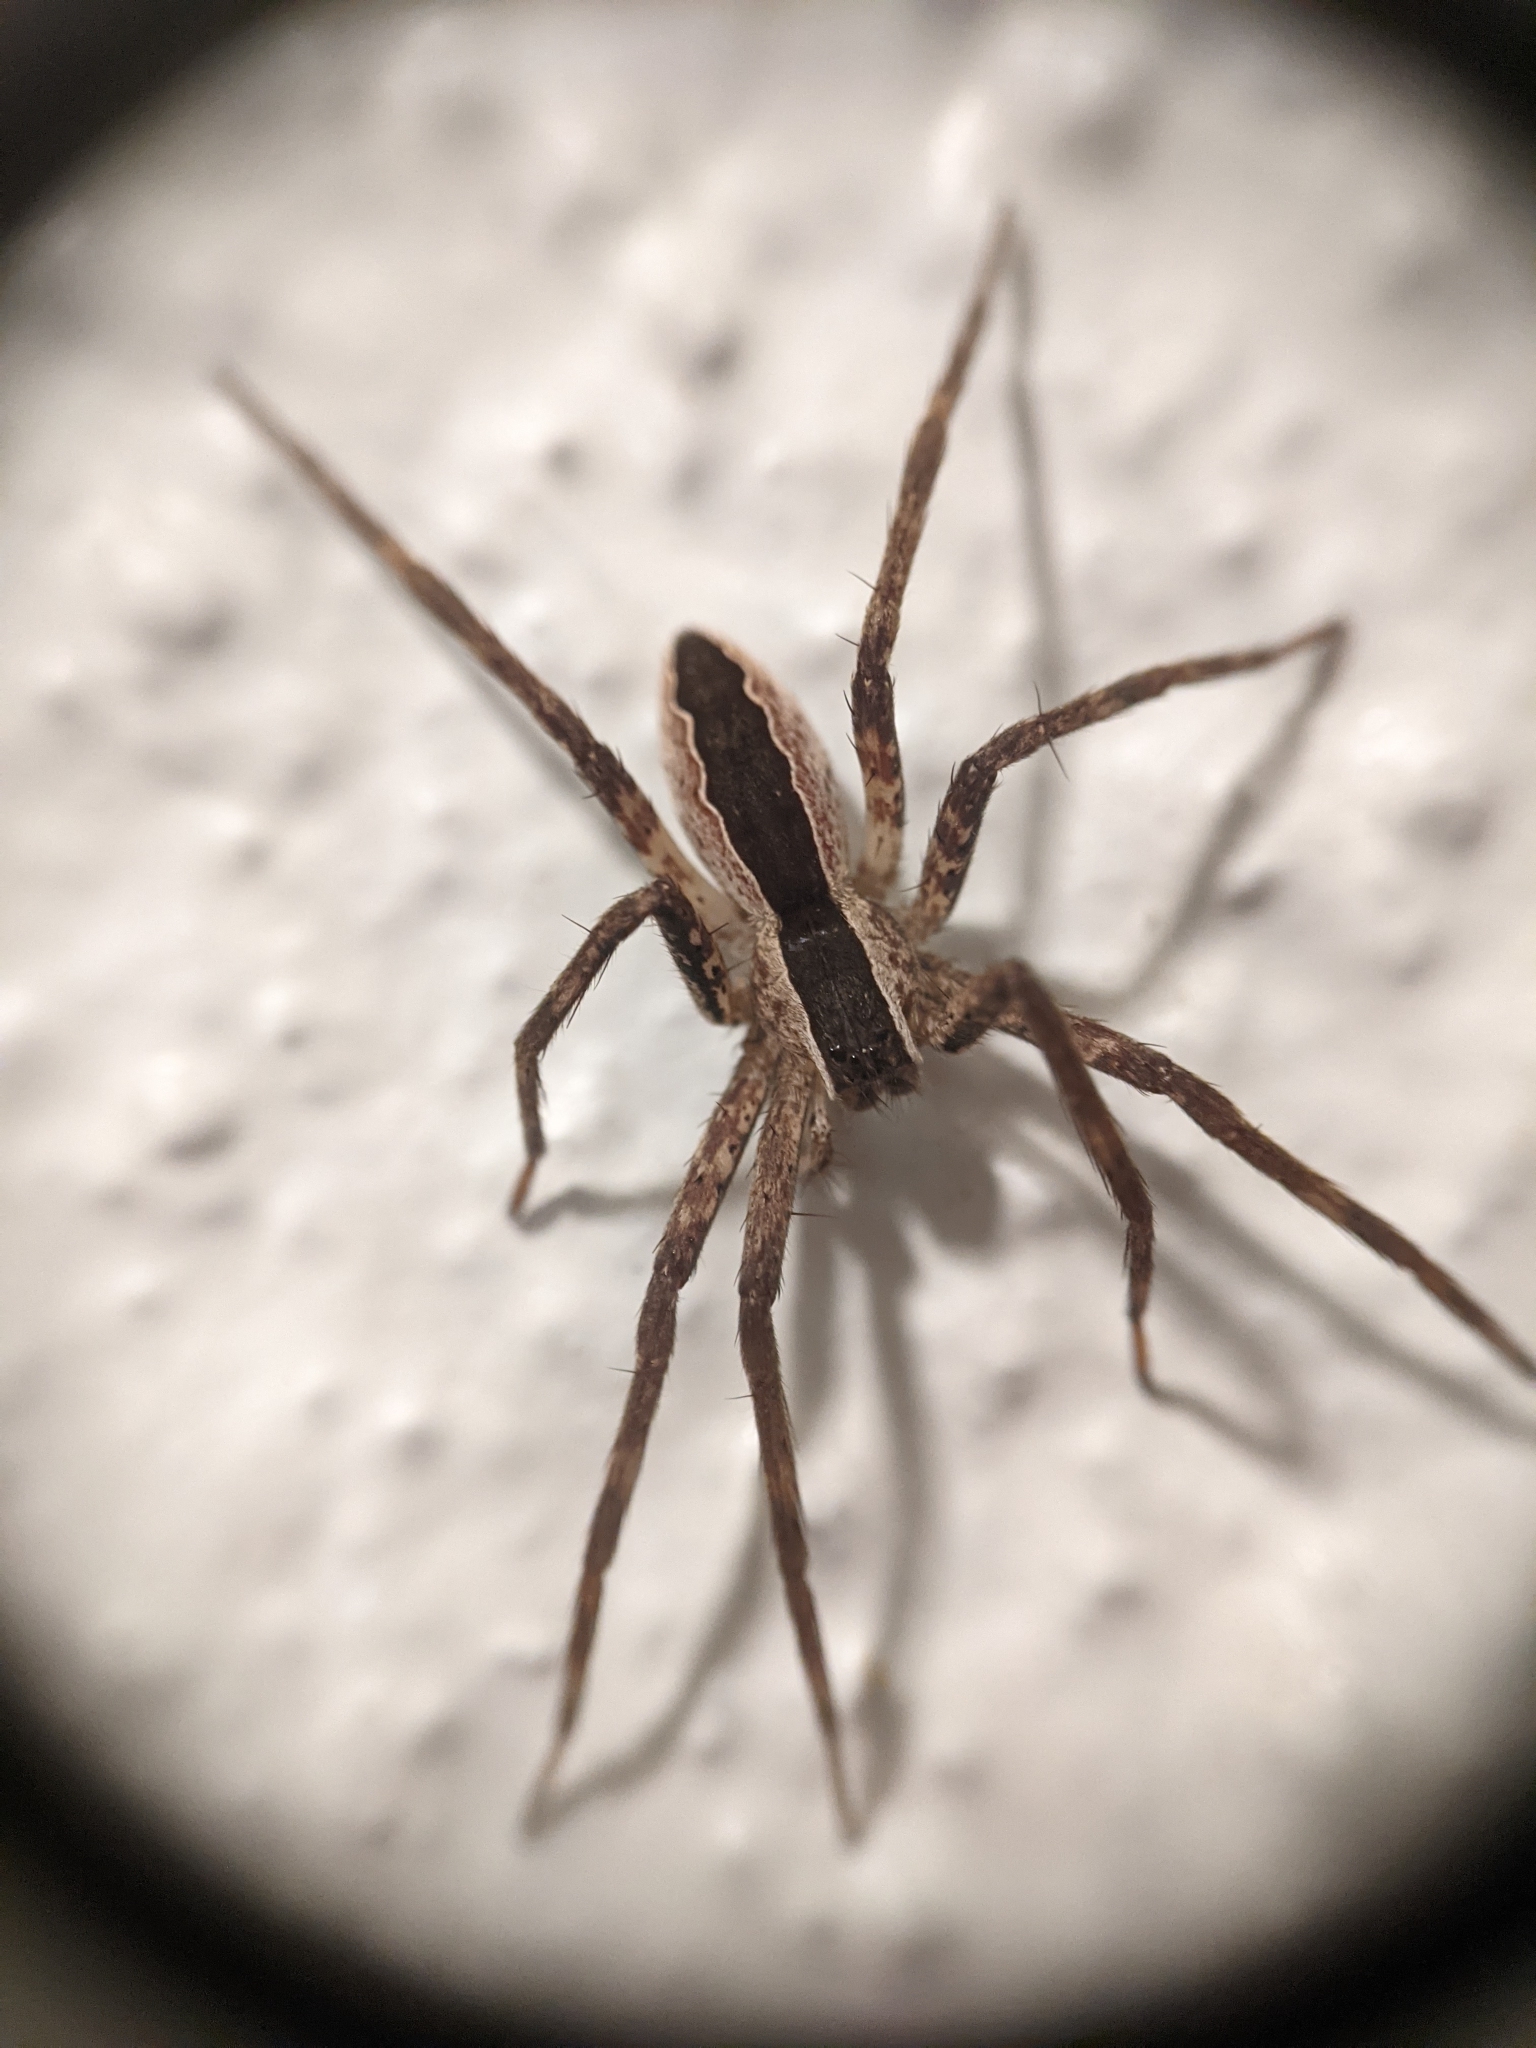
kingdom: Animalia
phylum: Arthropoda
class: Arachnida
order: Araneae
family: Pisauridae
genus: Pisaurina
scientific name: Pisaurina mira
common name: American nursery web spider
